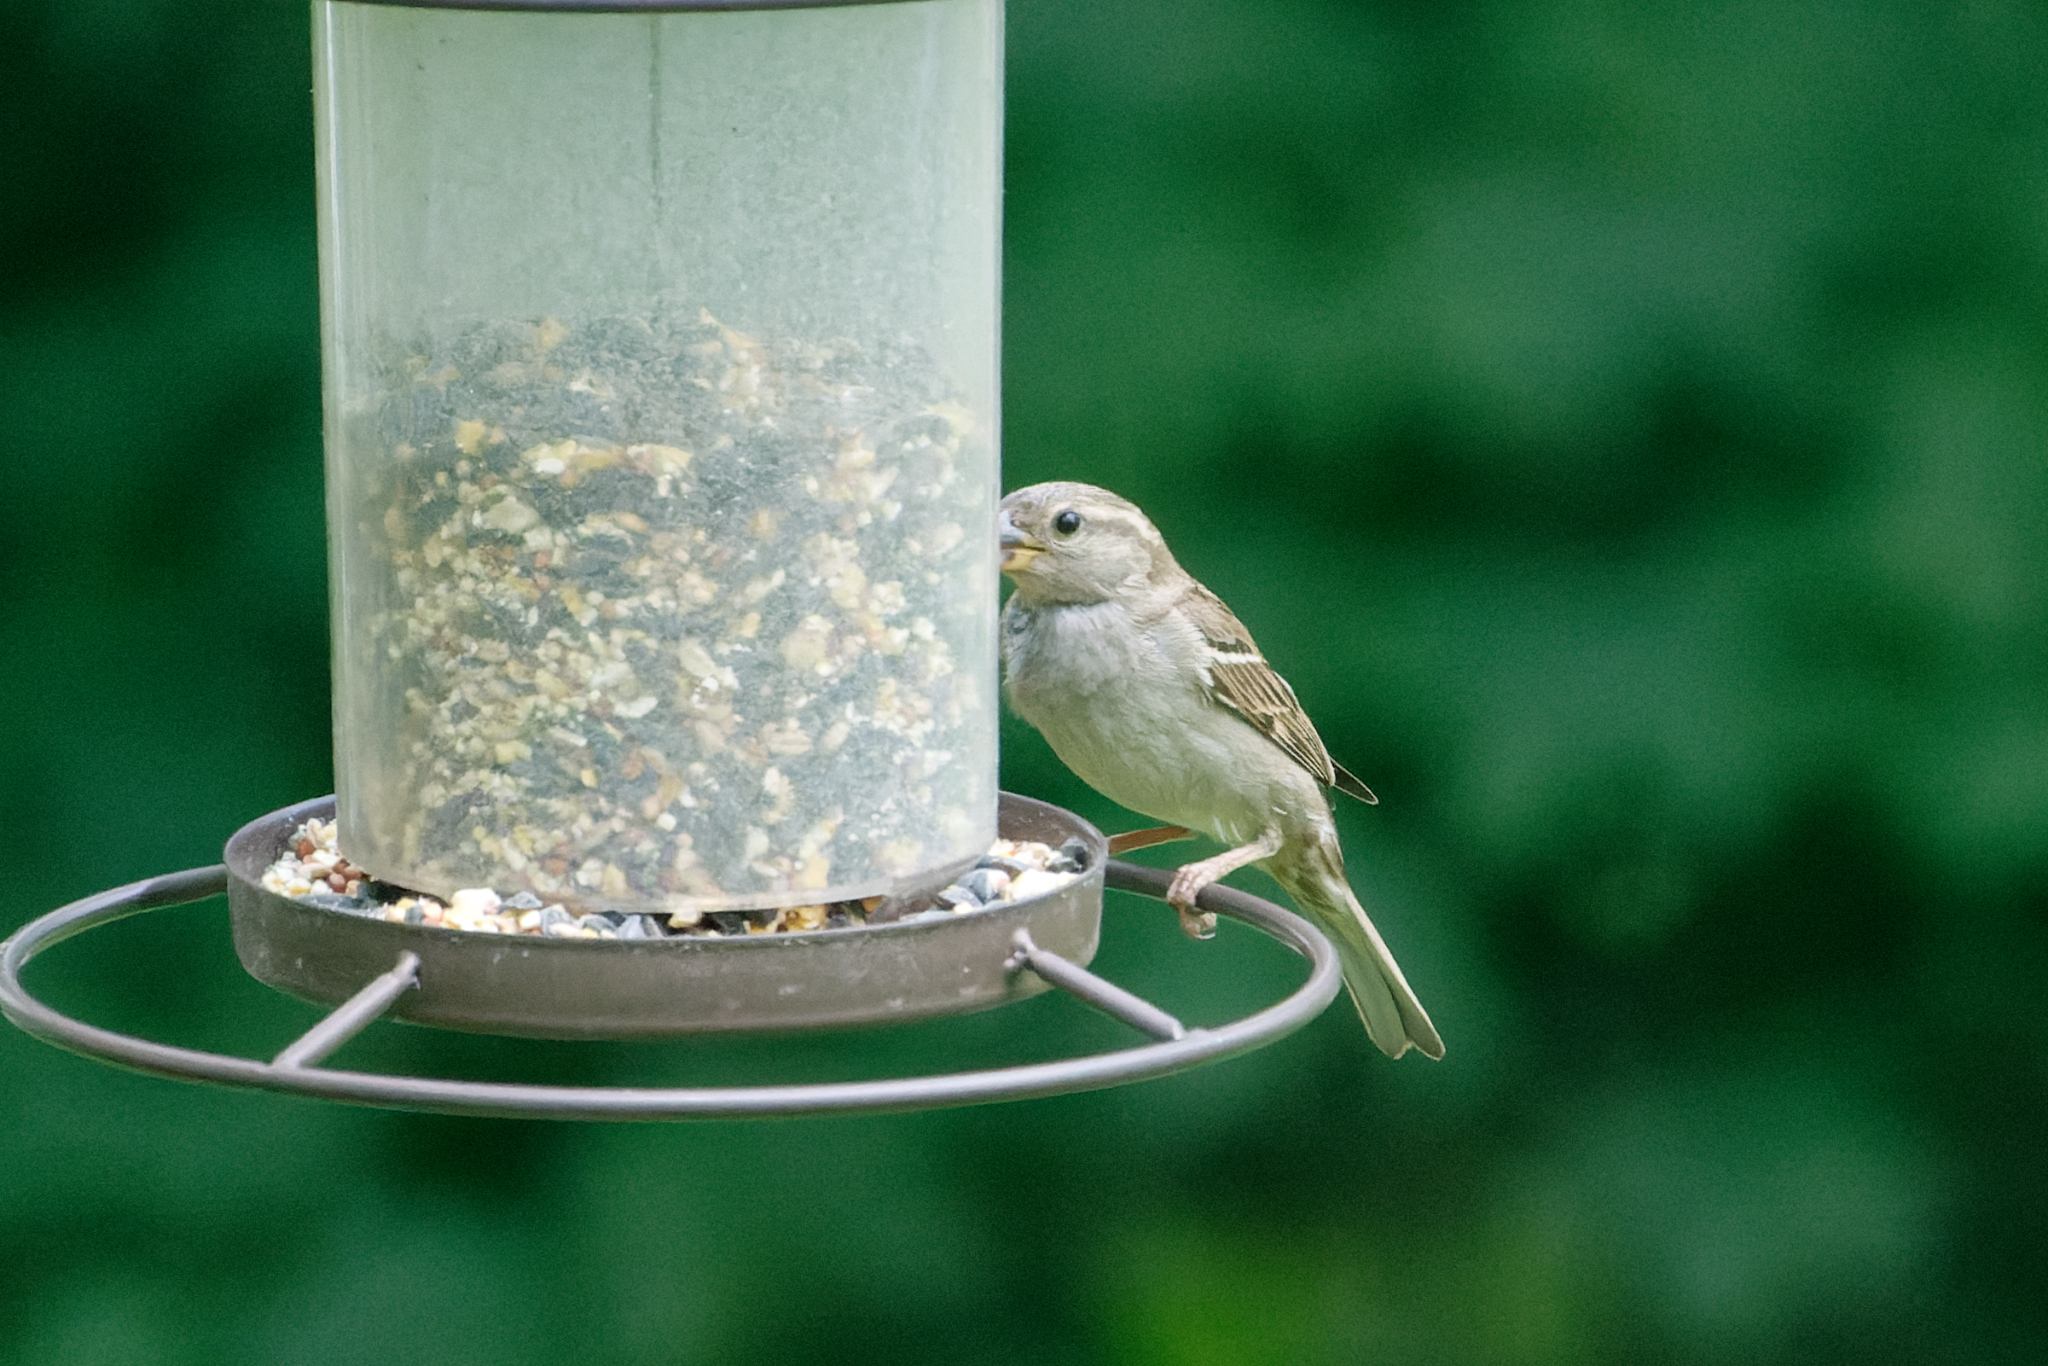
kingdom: Animalia
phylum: Chordata
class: Aves
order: Passeriformes
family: Passeridae
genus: Passer
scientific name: Passer domesticus
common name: House sparrow
